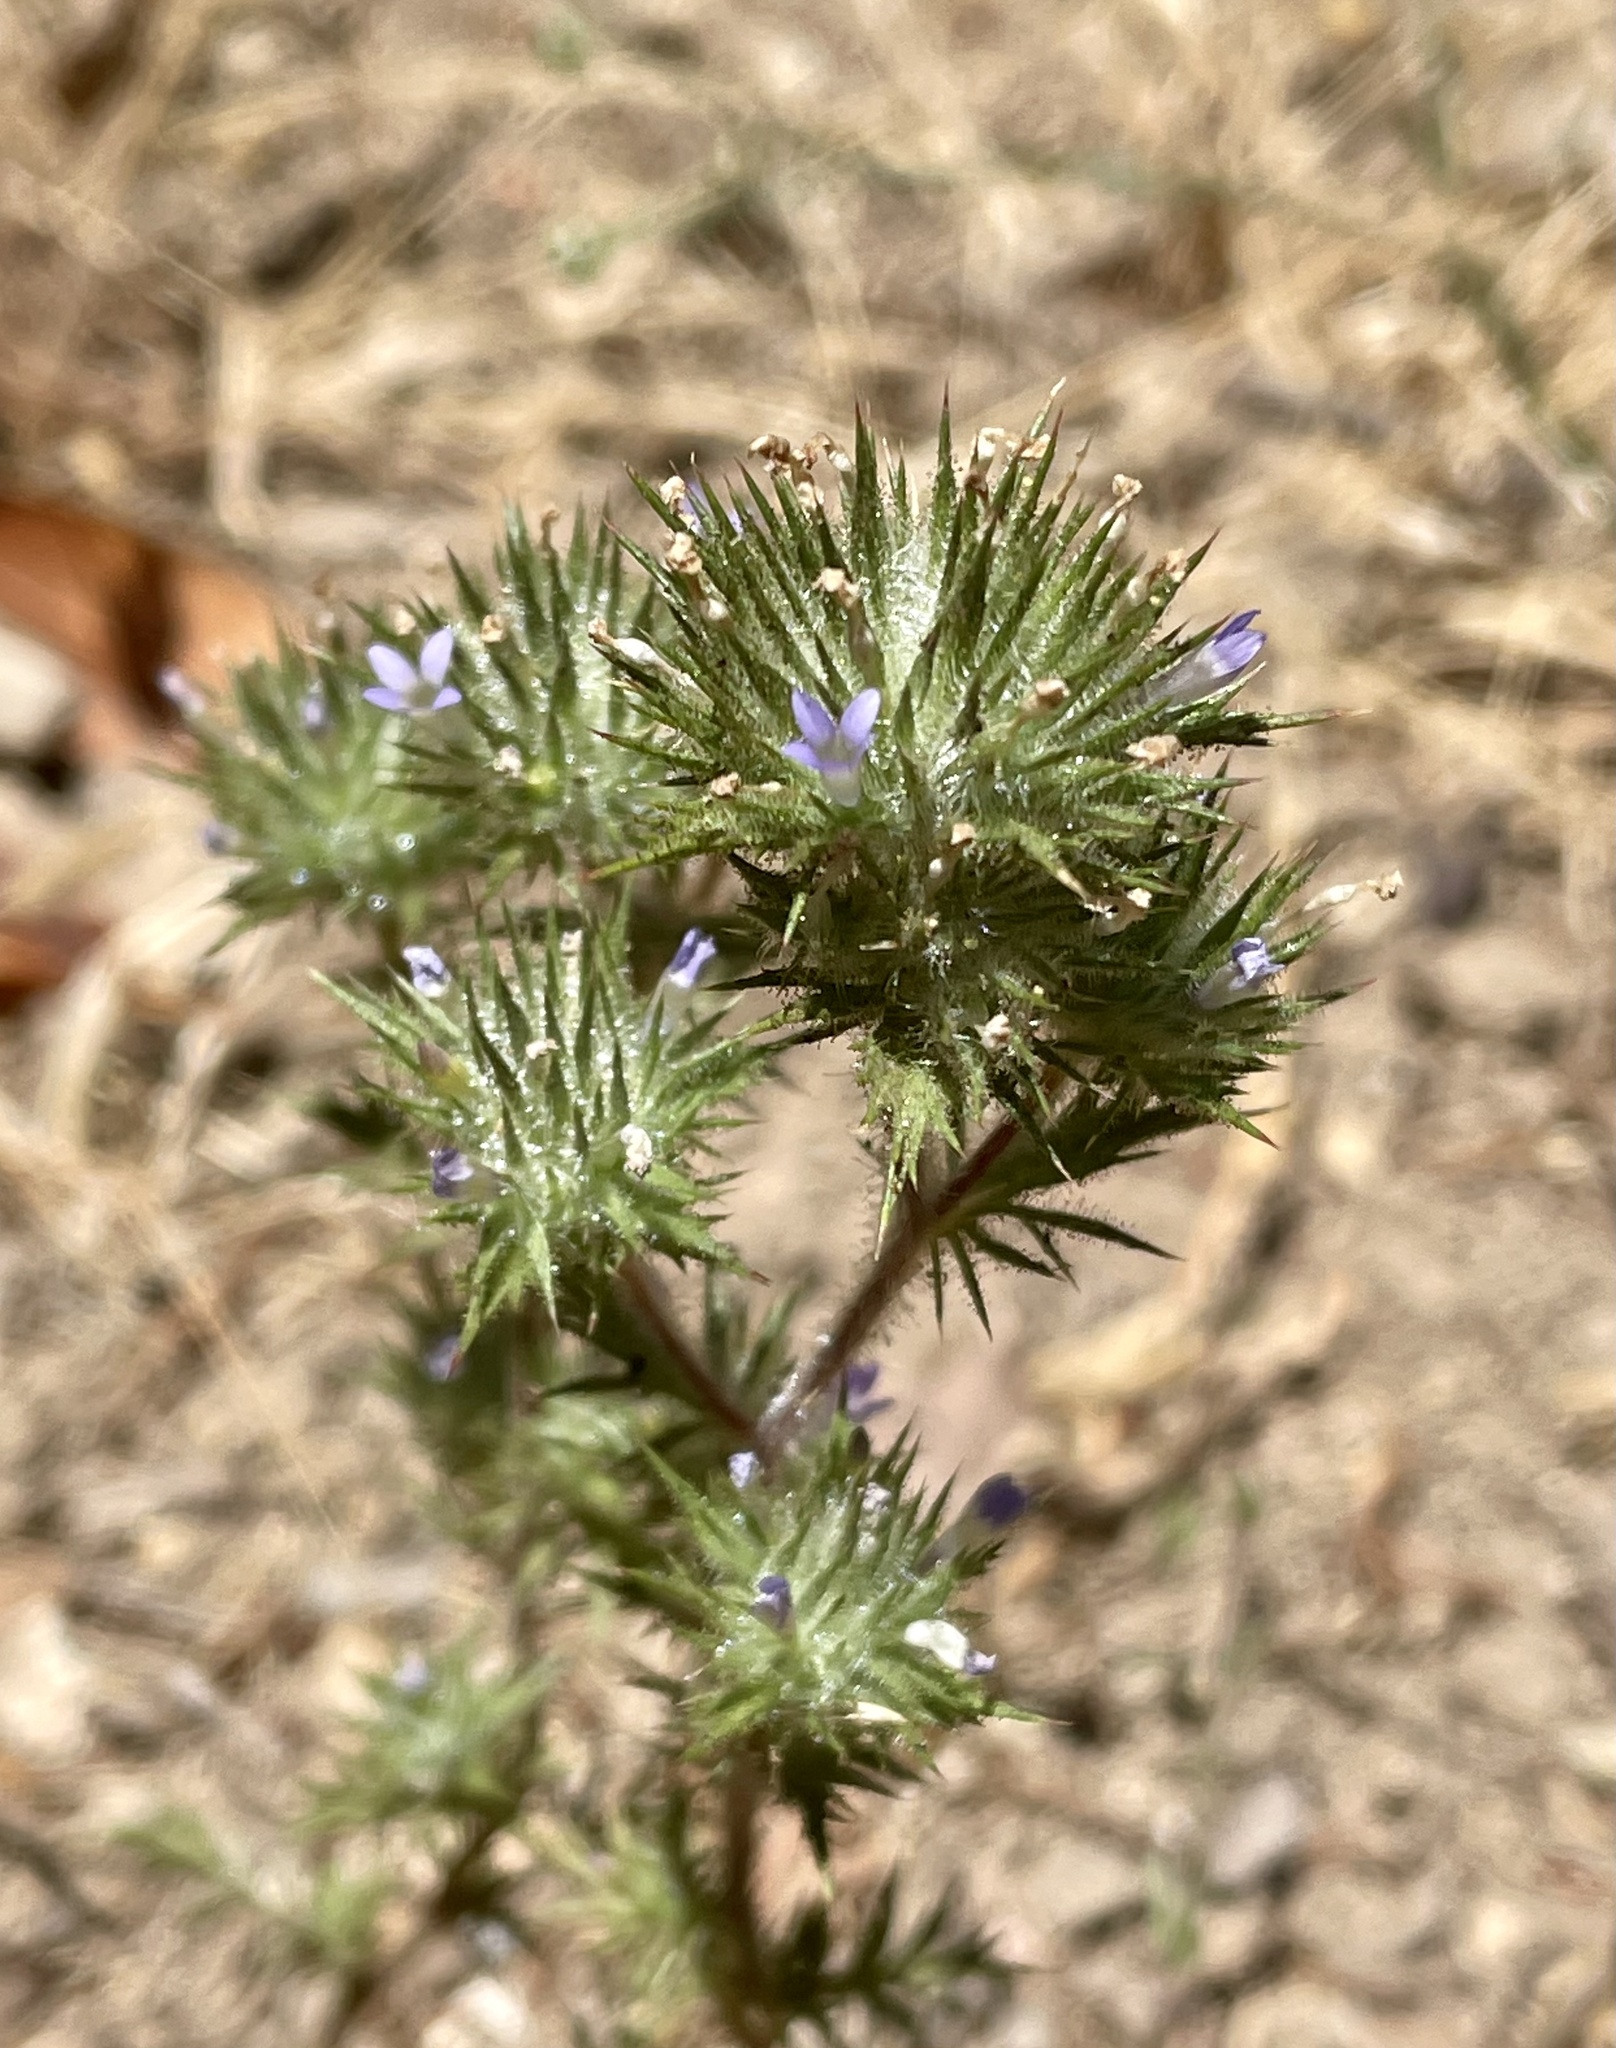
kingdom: Plantae
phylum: Tracheophyta
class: Magnoliopsida
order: Ericales
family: Polemoniaceae
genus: Navarretia
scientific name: Navarretia squarrosa
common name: Skunkweed
